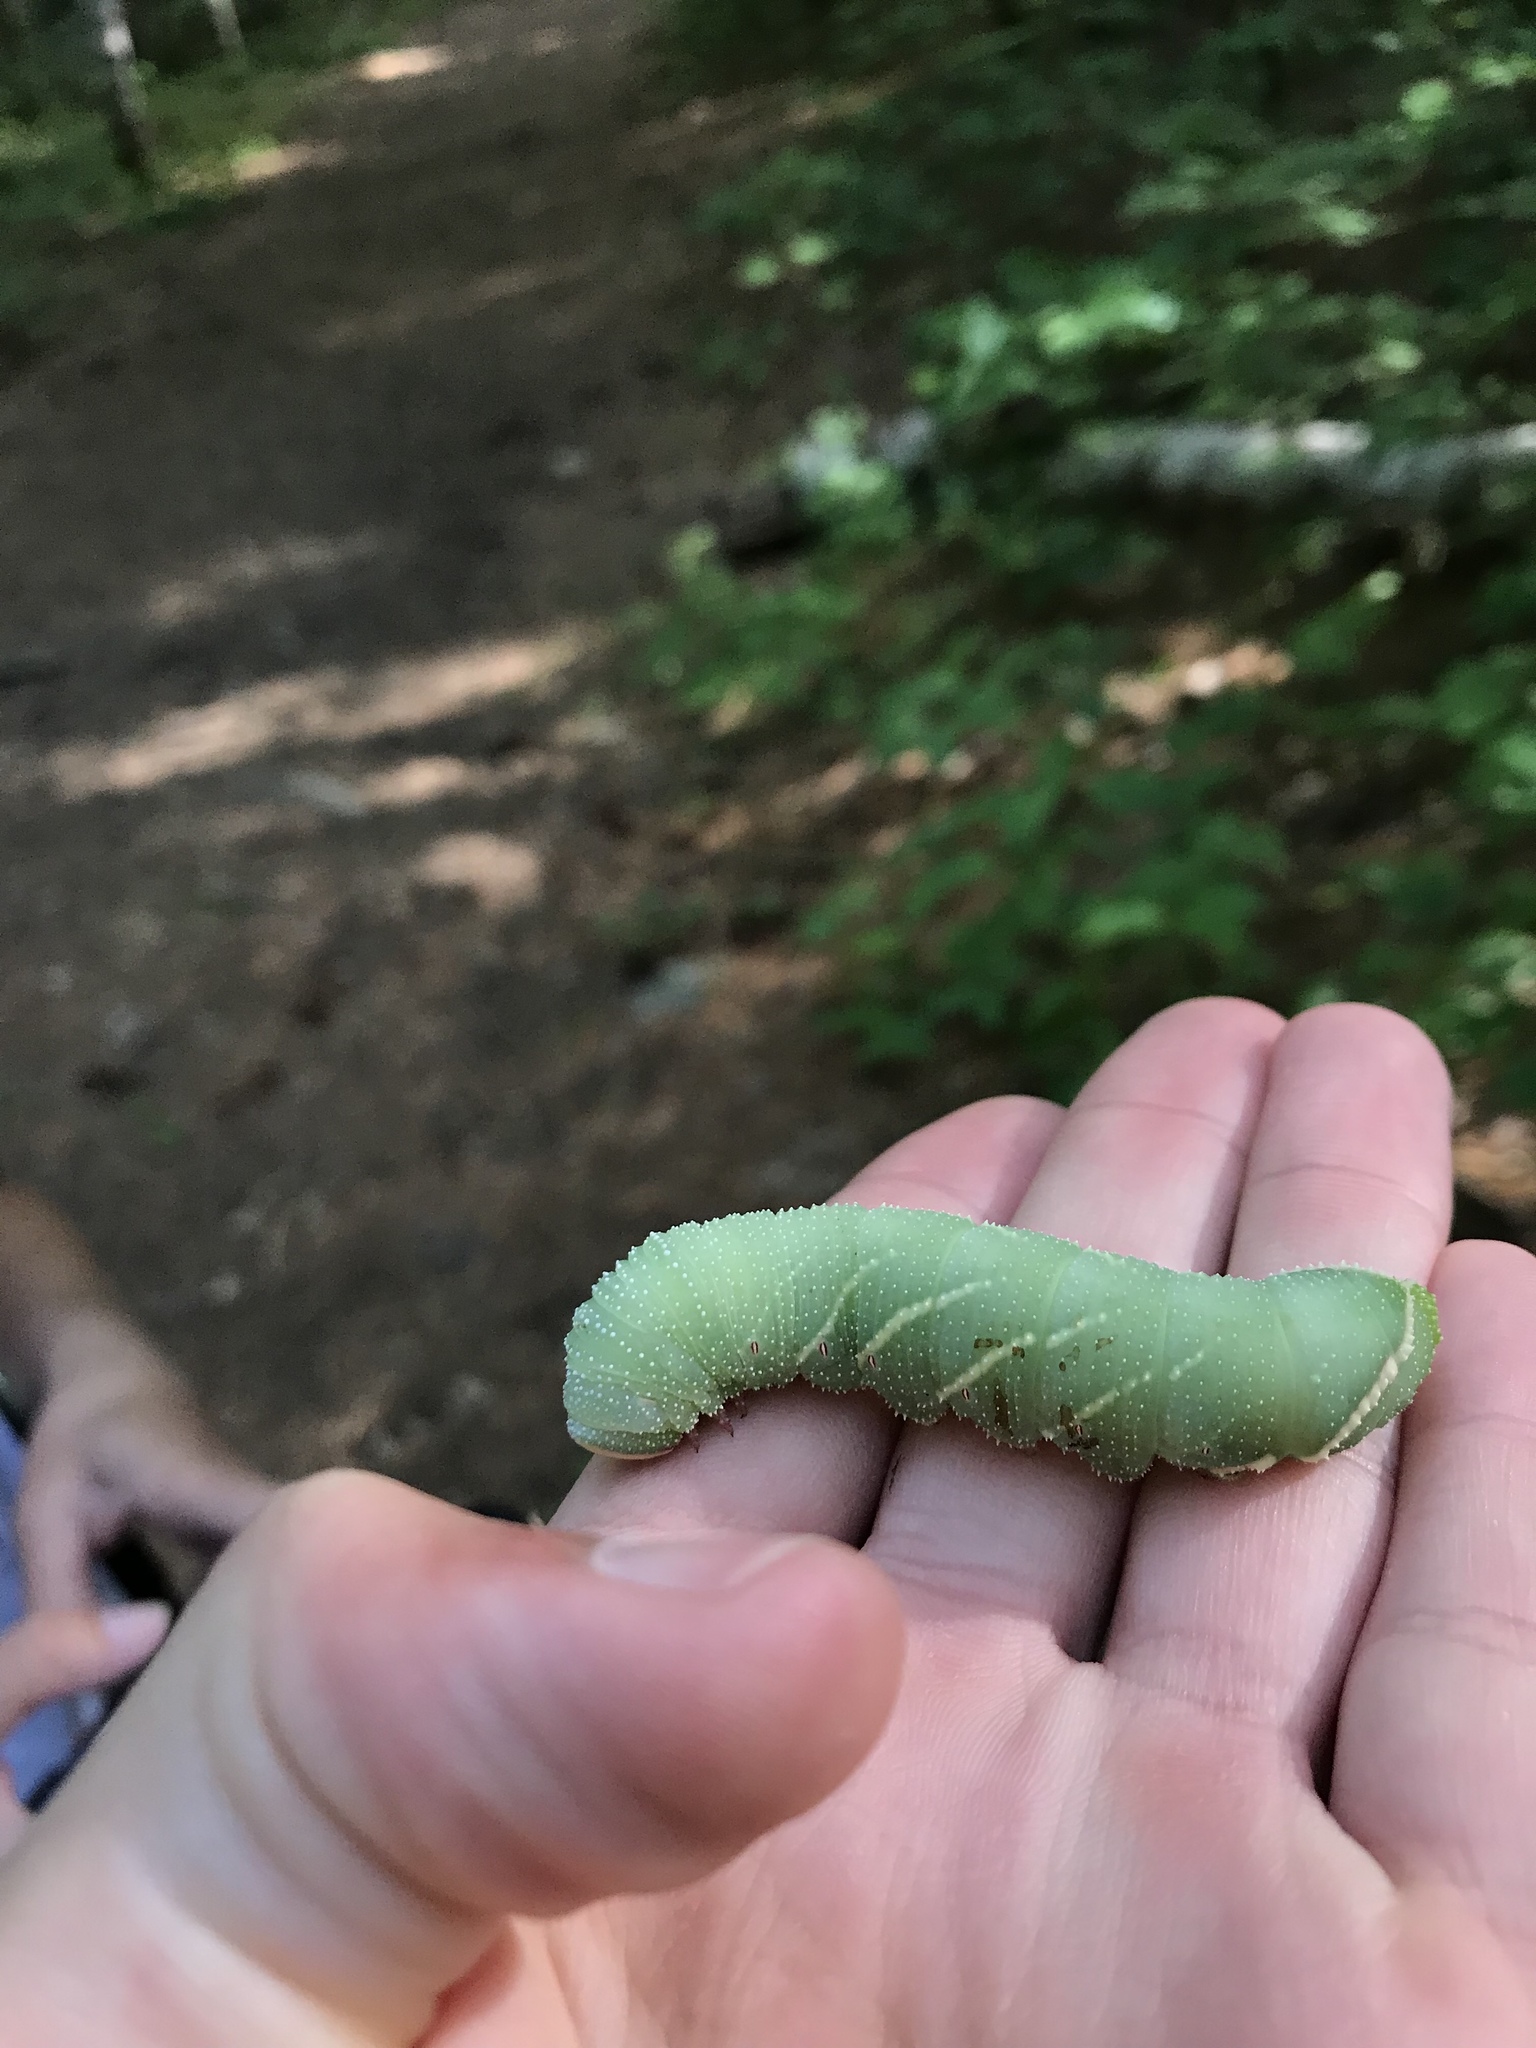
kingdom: Animalia
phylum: Arthropoda
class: Insecta
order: Lepidoptera
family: Sphingidae
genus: Pachysphinx
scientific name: Pachysphinx modesta
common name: Big poplar sphinx
